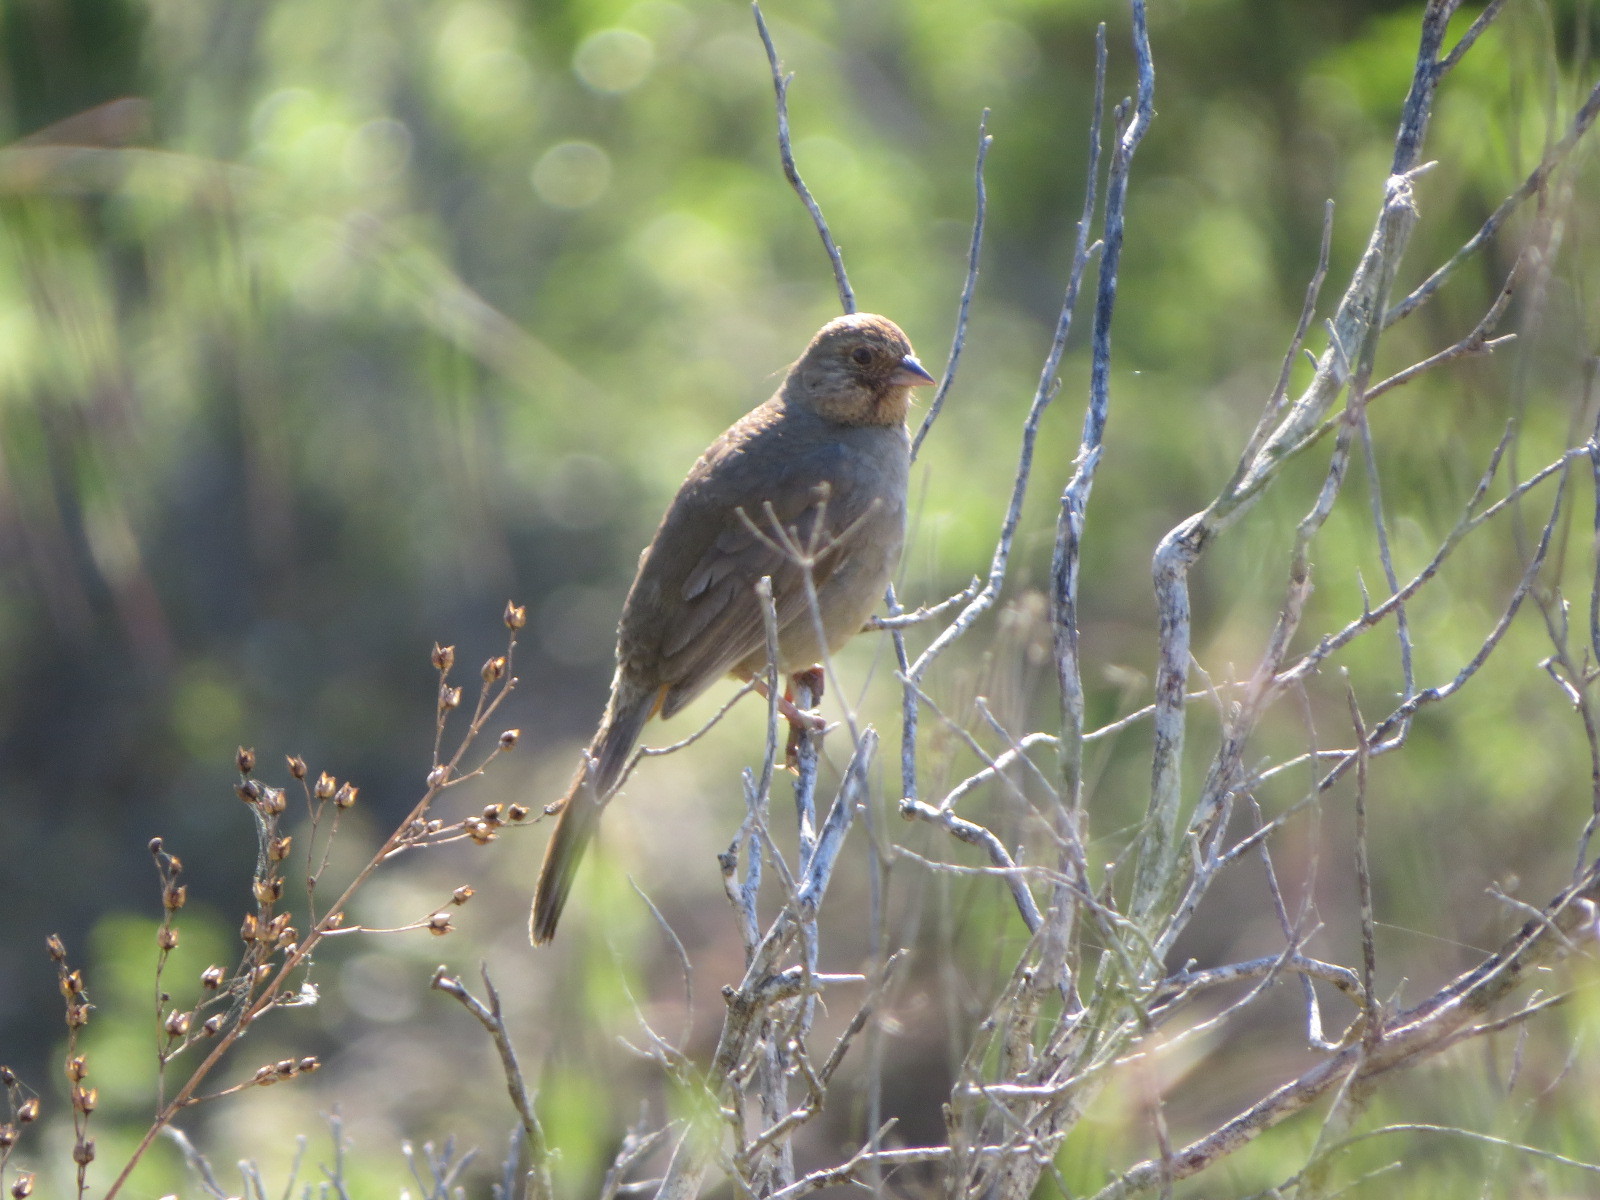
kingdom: Animalia
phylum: Chordata
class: Aves
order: Passeriformes
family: Passerellidae
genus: Melozone
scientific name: Melozone crissalis
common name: California towhee
